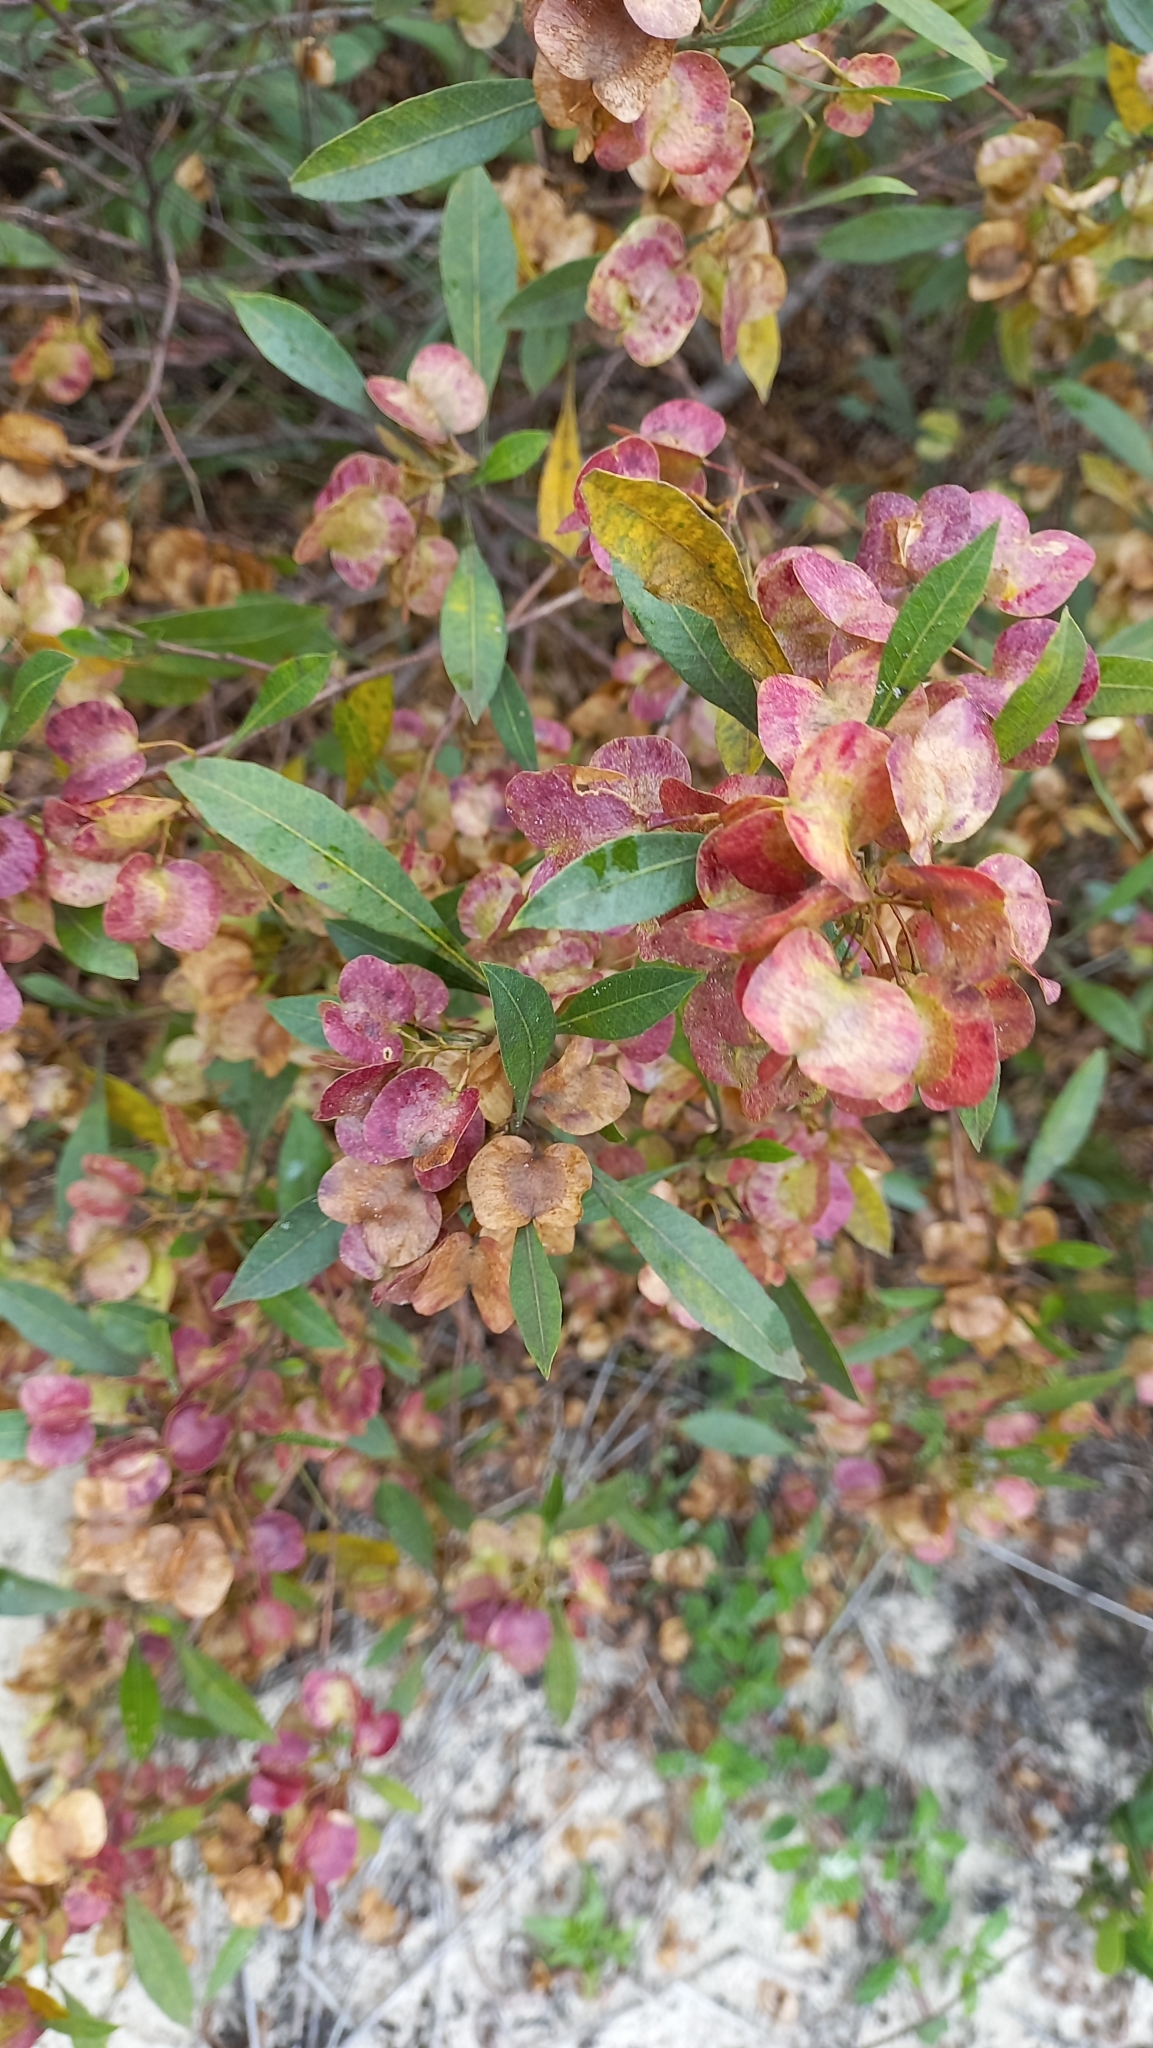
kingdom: Plantae
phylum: Tracheophyta
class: Magnoliopsida
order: Sapindales
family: Sapindaceae
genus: Dodonaea
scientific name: Dodonaea viscosa
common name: Hopbush
